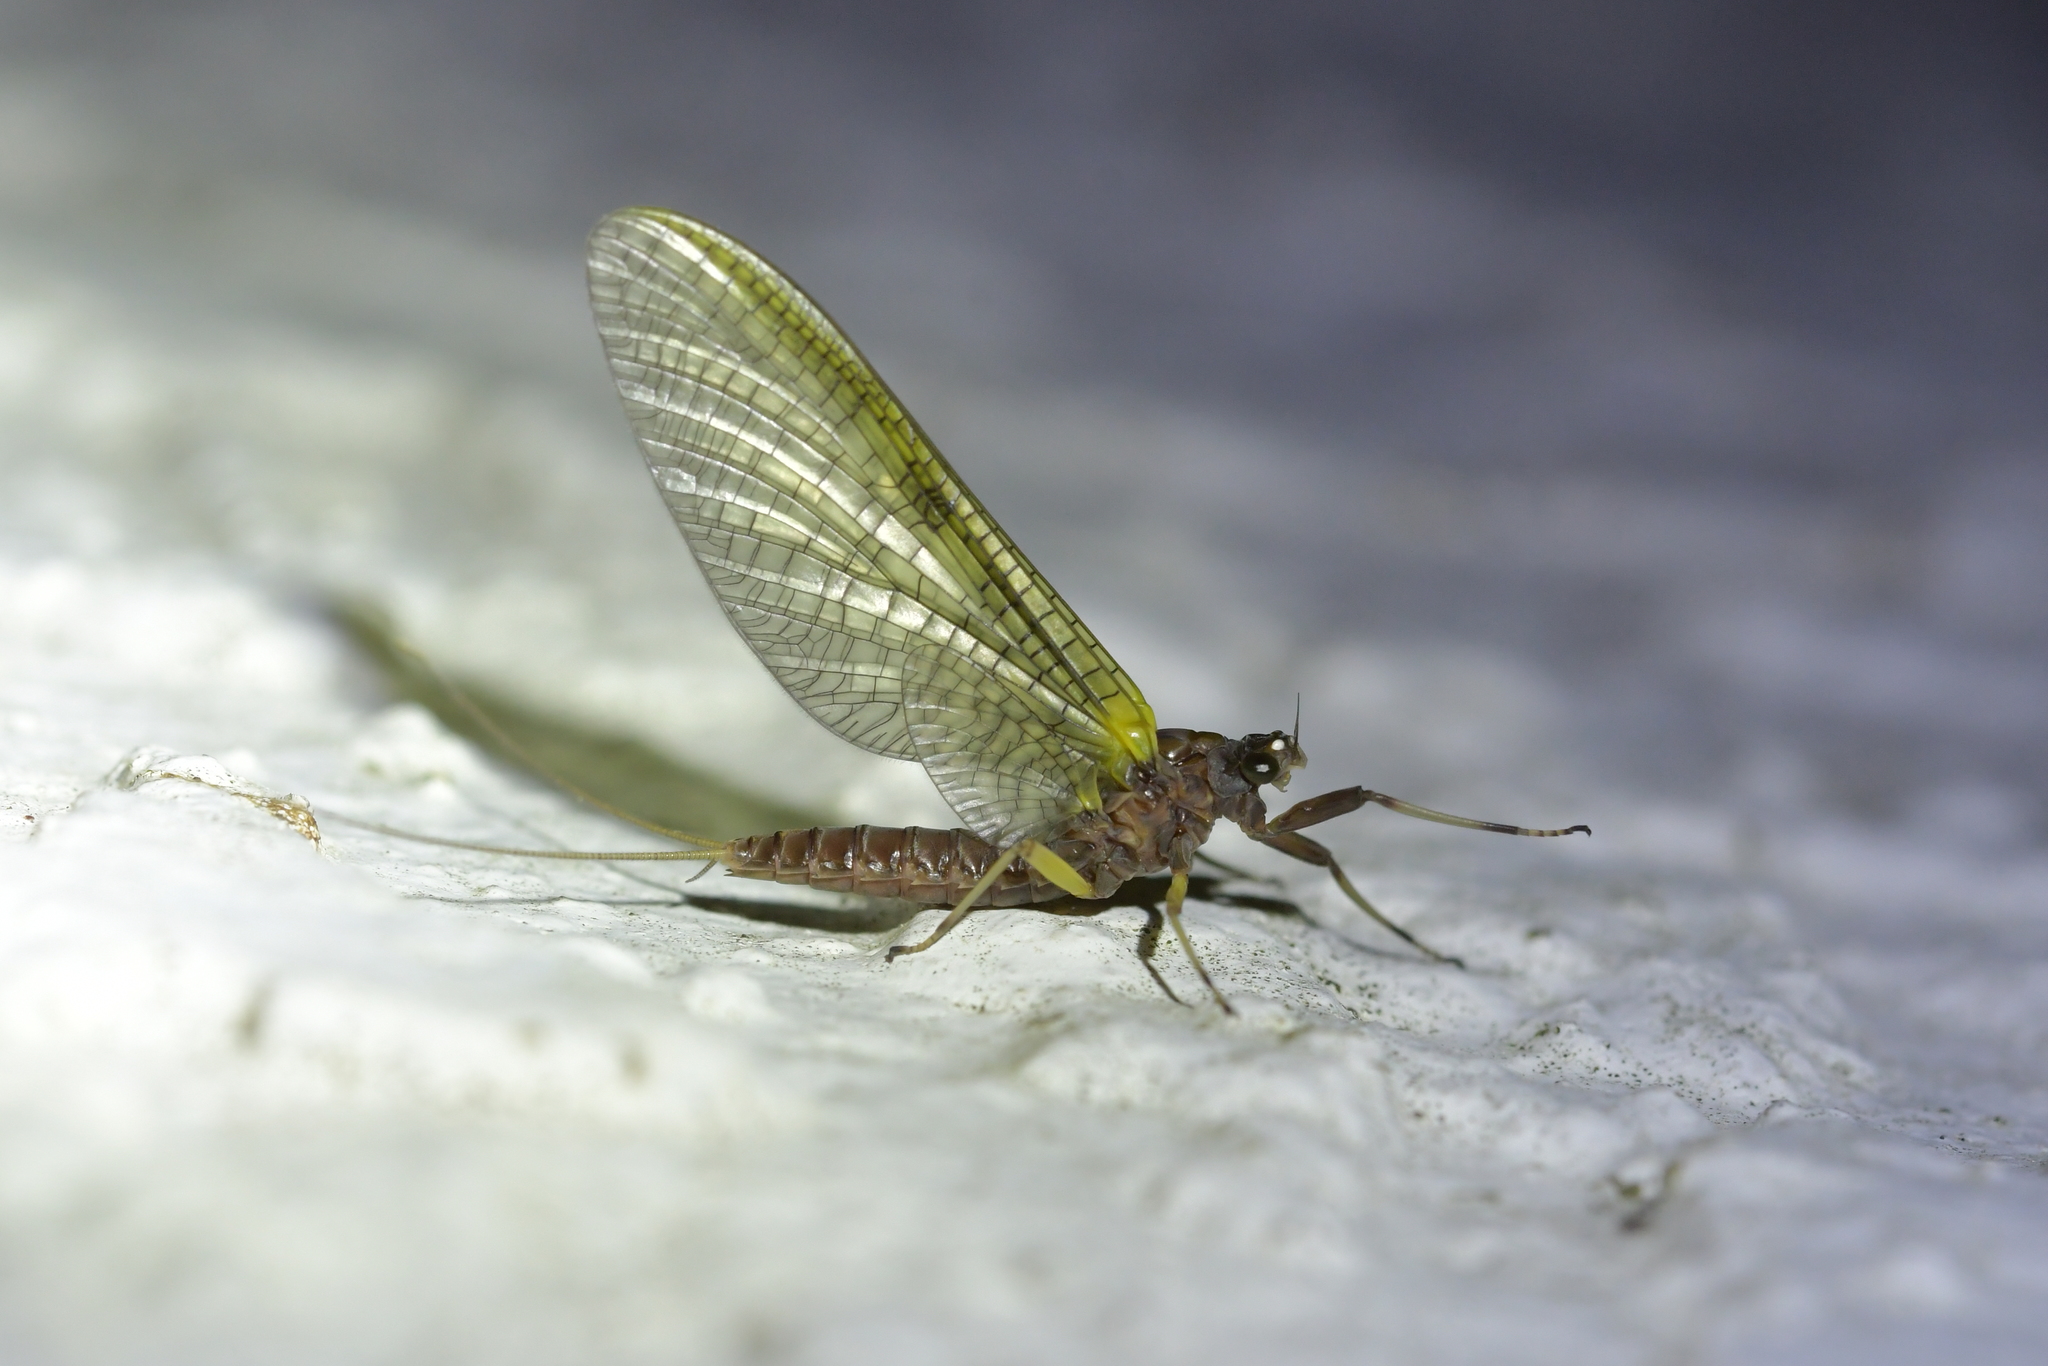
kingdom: Animalia
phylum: Arthropoda
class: Insecta
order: Ephemeroptera
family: Coloburiscidae
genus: Coloburiscus
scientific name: Coloburiscus humeralis
